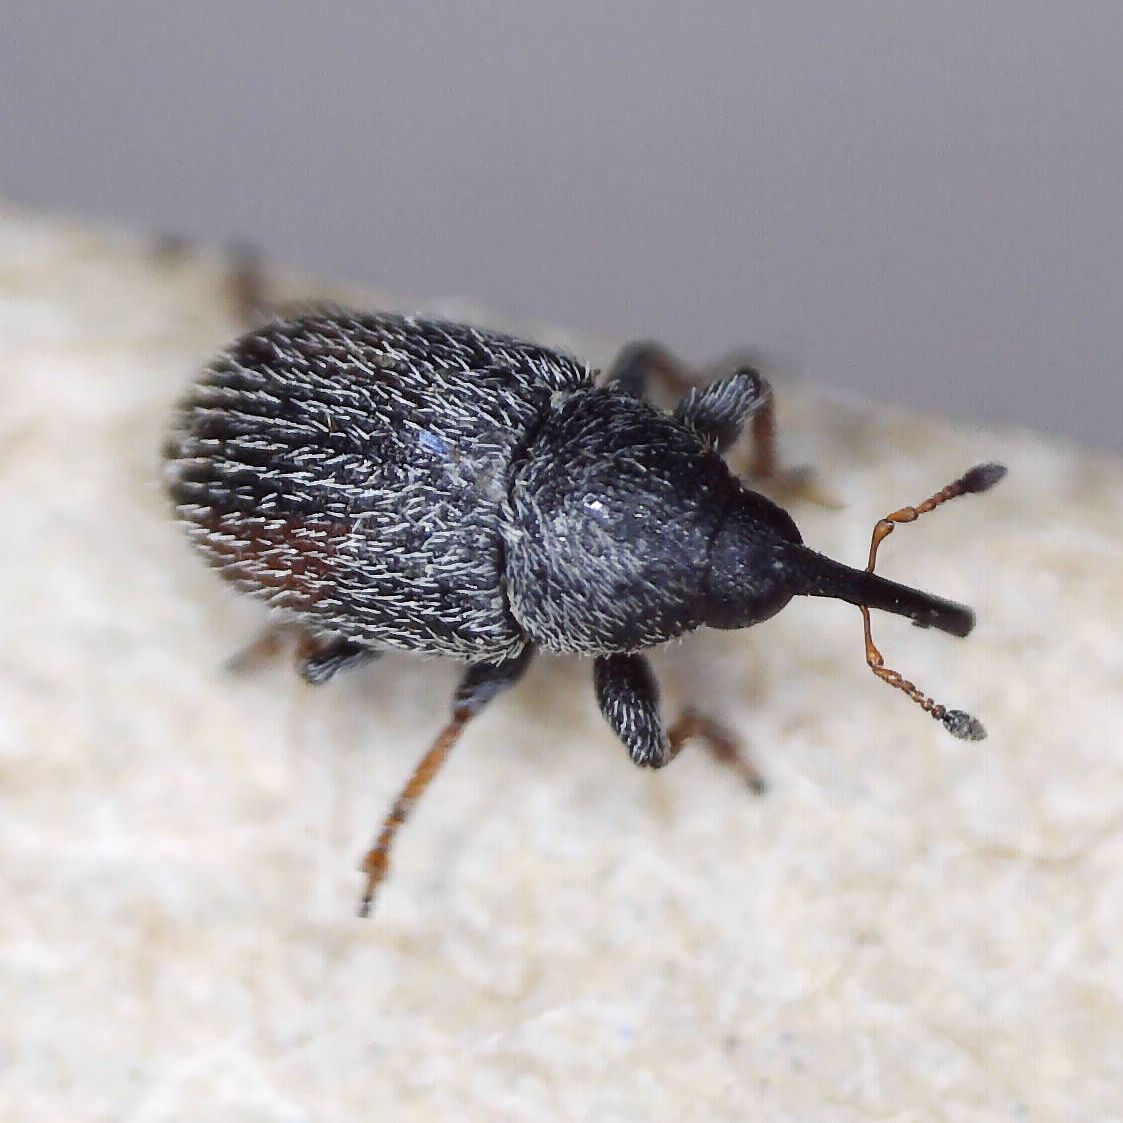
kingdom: Animalia
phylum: Arthropoda
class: Insecta
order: Coleoptera
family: Curculionidae
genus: Mecinus
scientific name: Mecinus pascuorum
